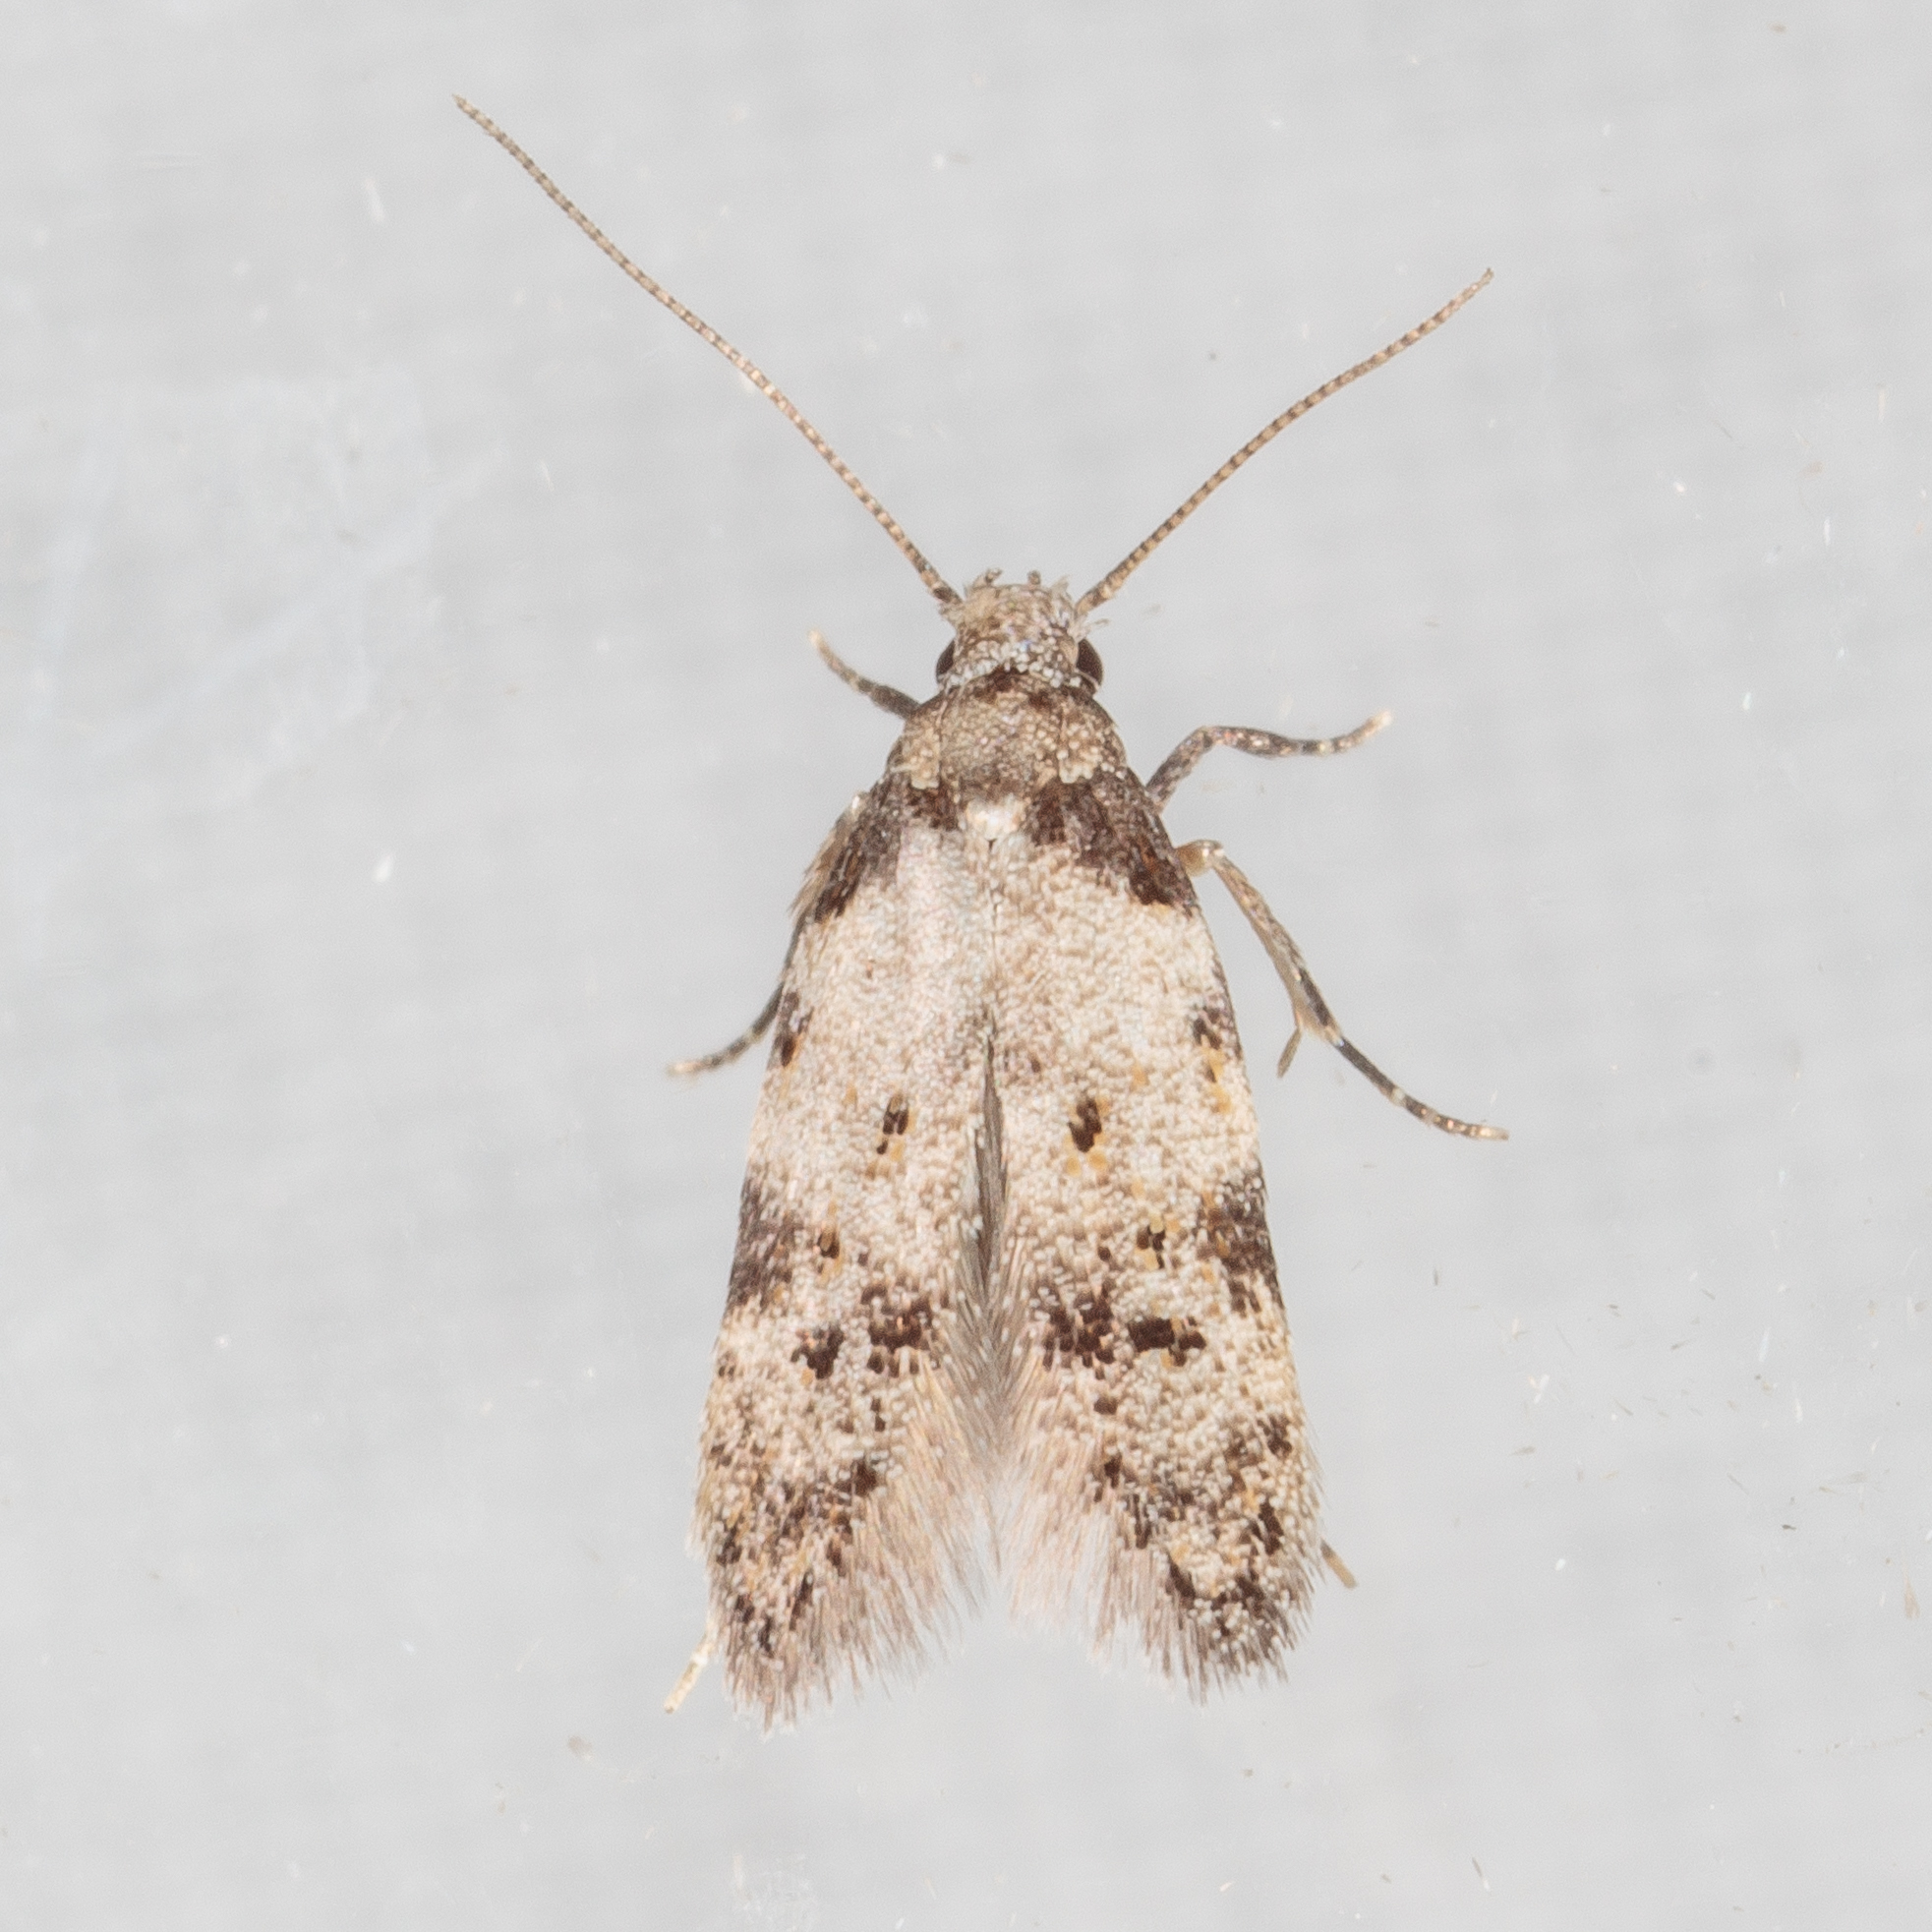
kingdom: Animalia
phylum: Arthropoda
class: Insecta
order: Lepidoptera
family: Autostichidae
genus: Taygete
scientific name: Taygete attributella
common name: Triangle-marked twirler moth
